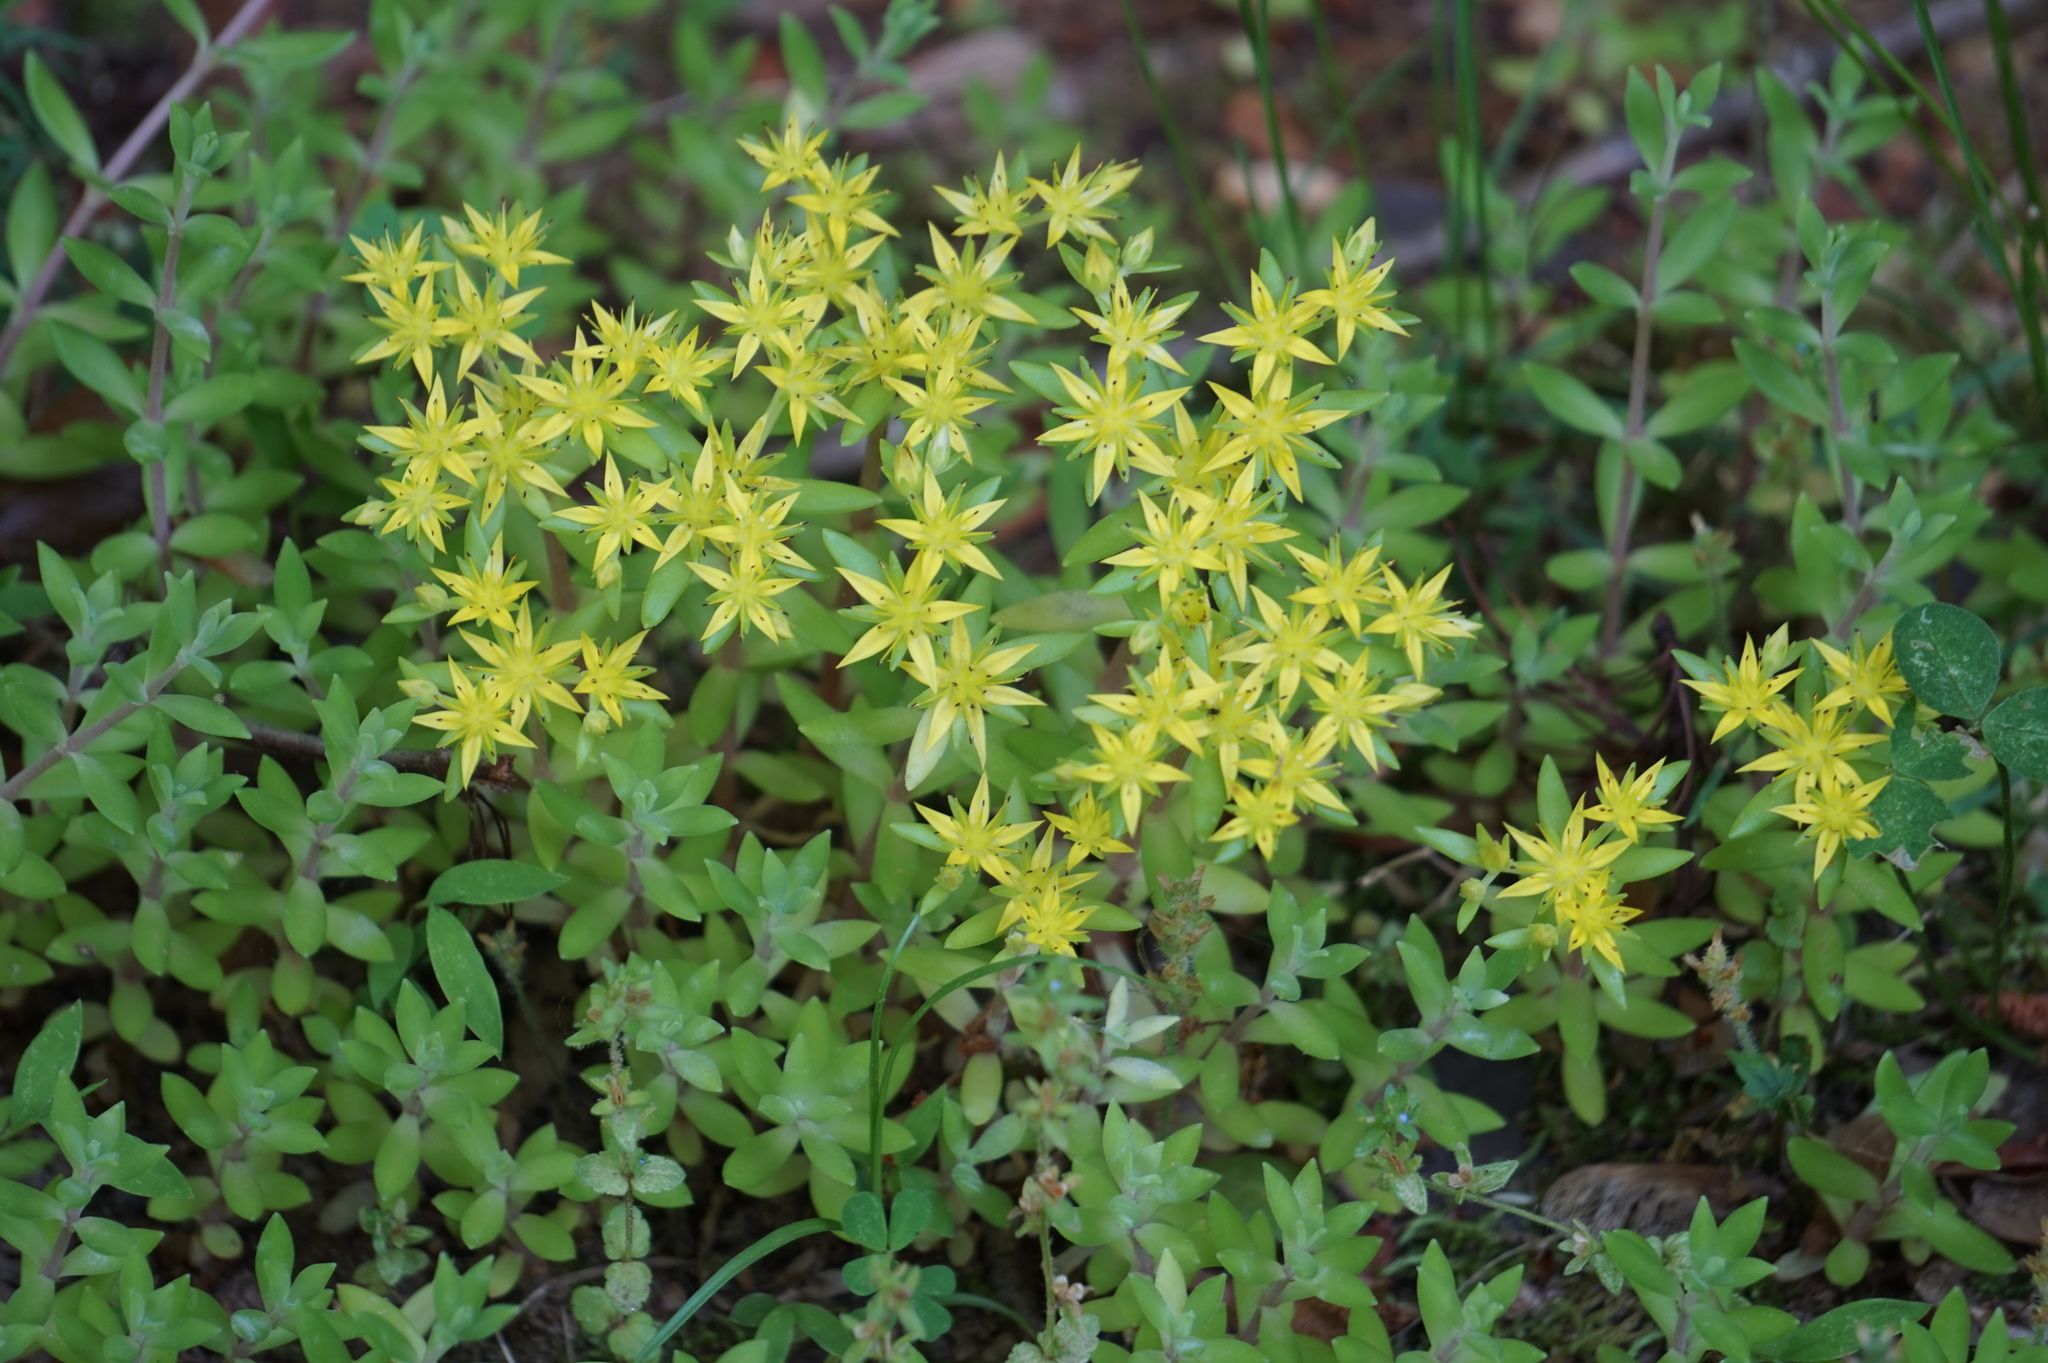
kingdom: Plantae
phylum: Tracheophyta
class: Magnoliopsida
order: Saxifragales
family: Crassulaceae
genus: Sedum
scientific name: Sedum sarmentosum
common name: Stringy stonecrop
